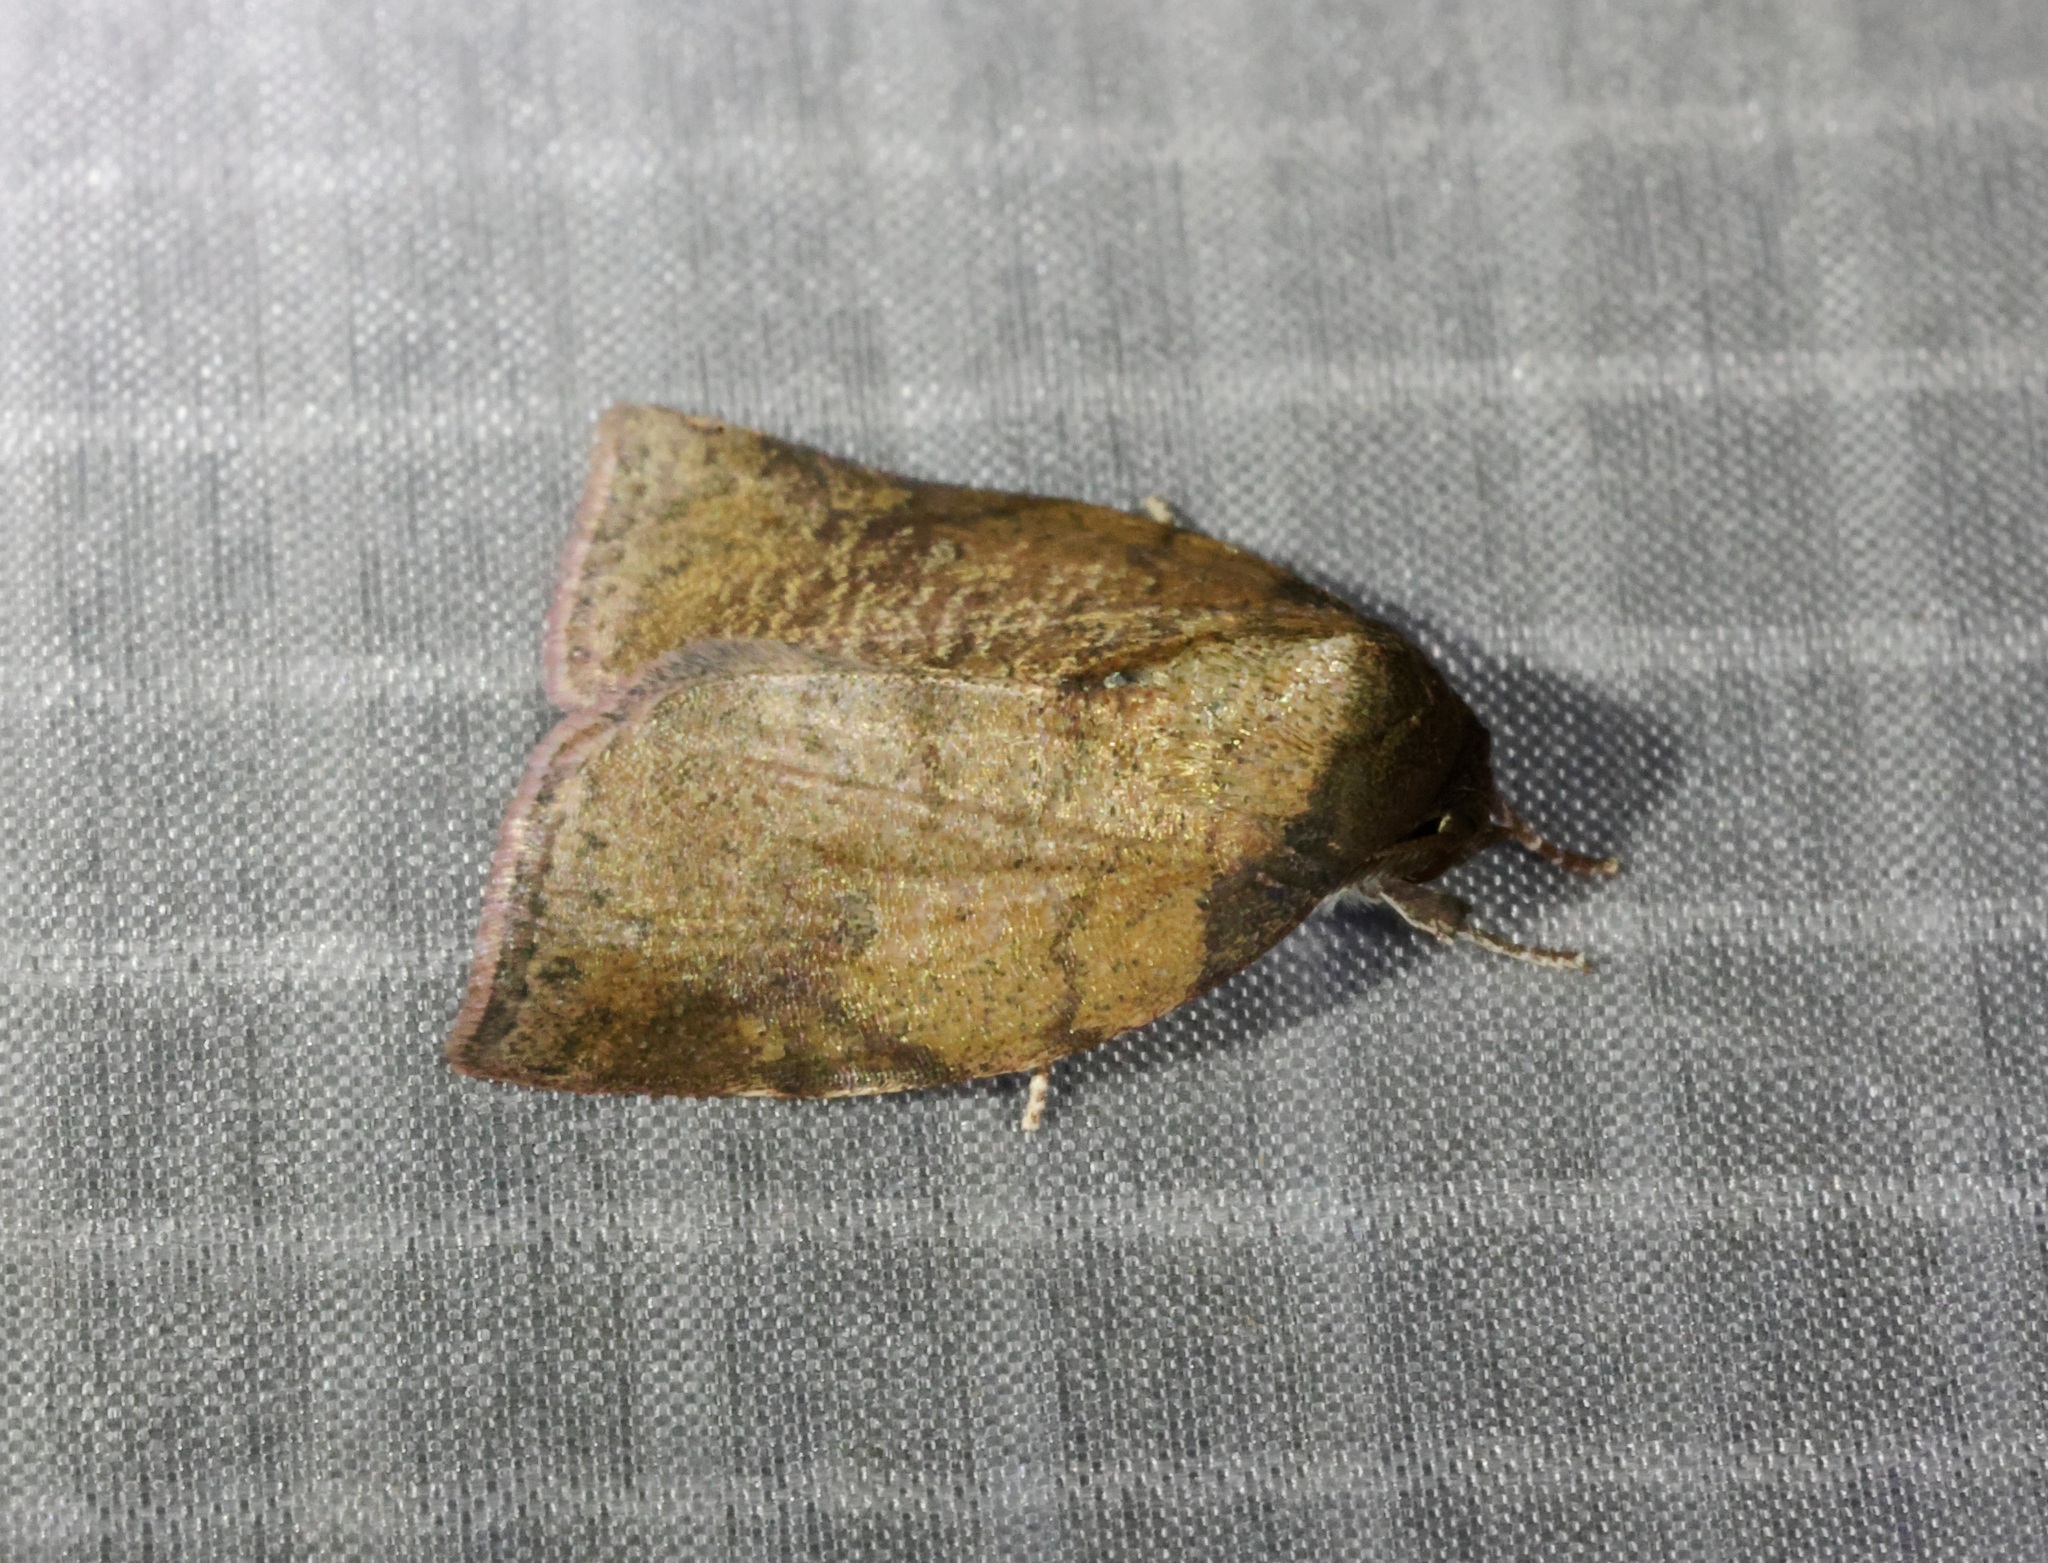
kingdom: Animalia
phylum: Arthropoda
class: Insecta
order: Lepidoptera
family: Nolidae
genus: Beara
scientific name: Beara tortriciformis
